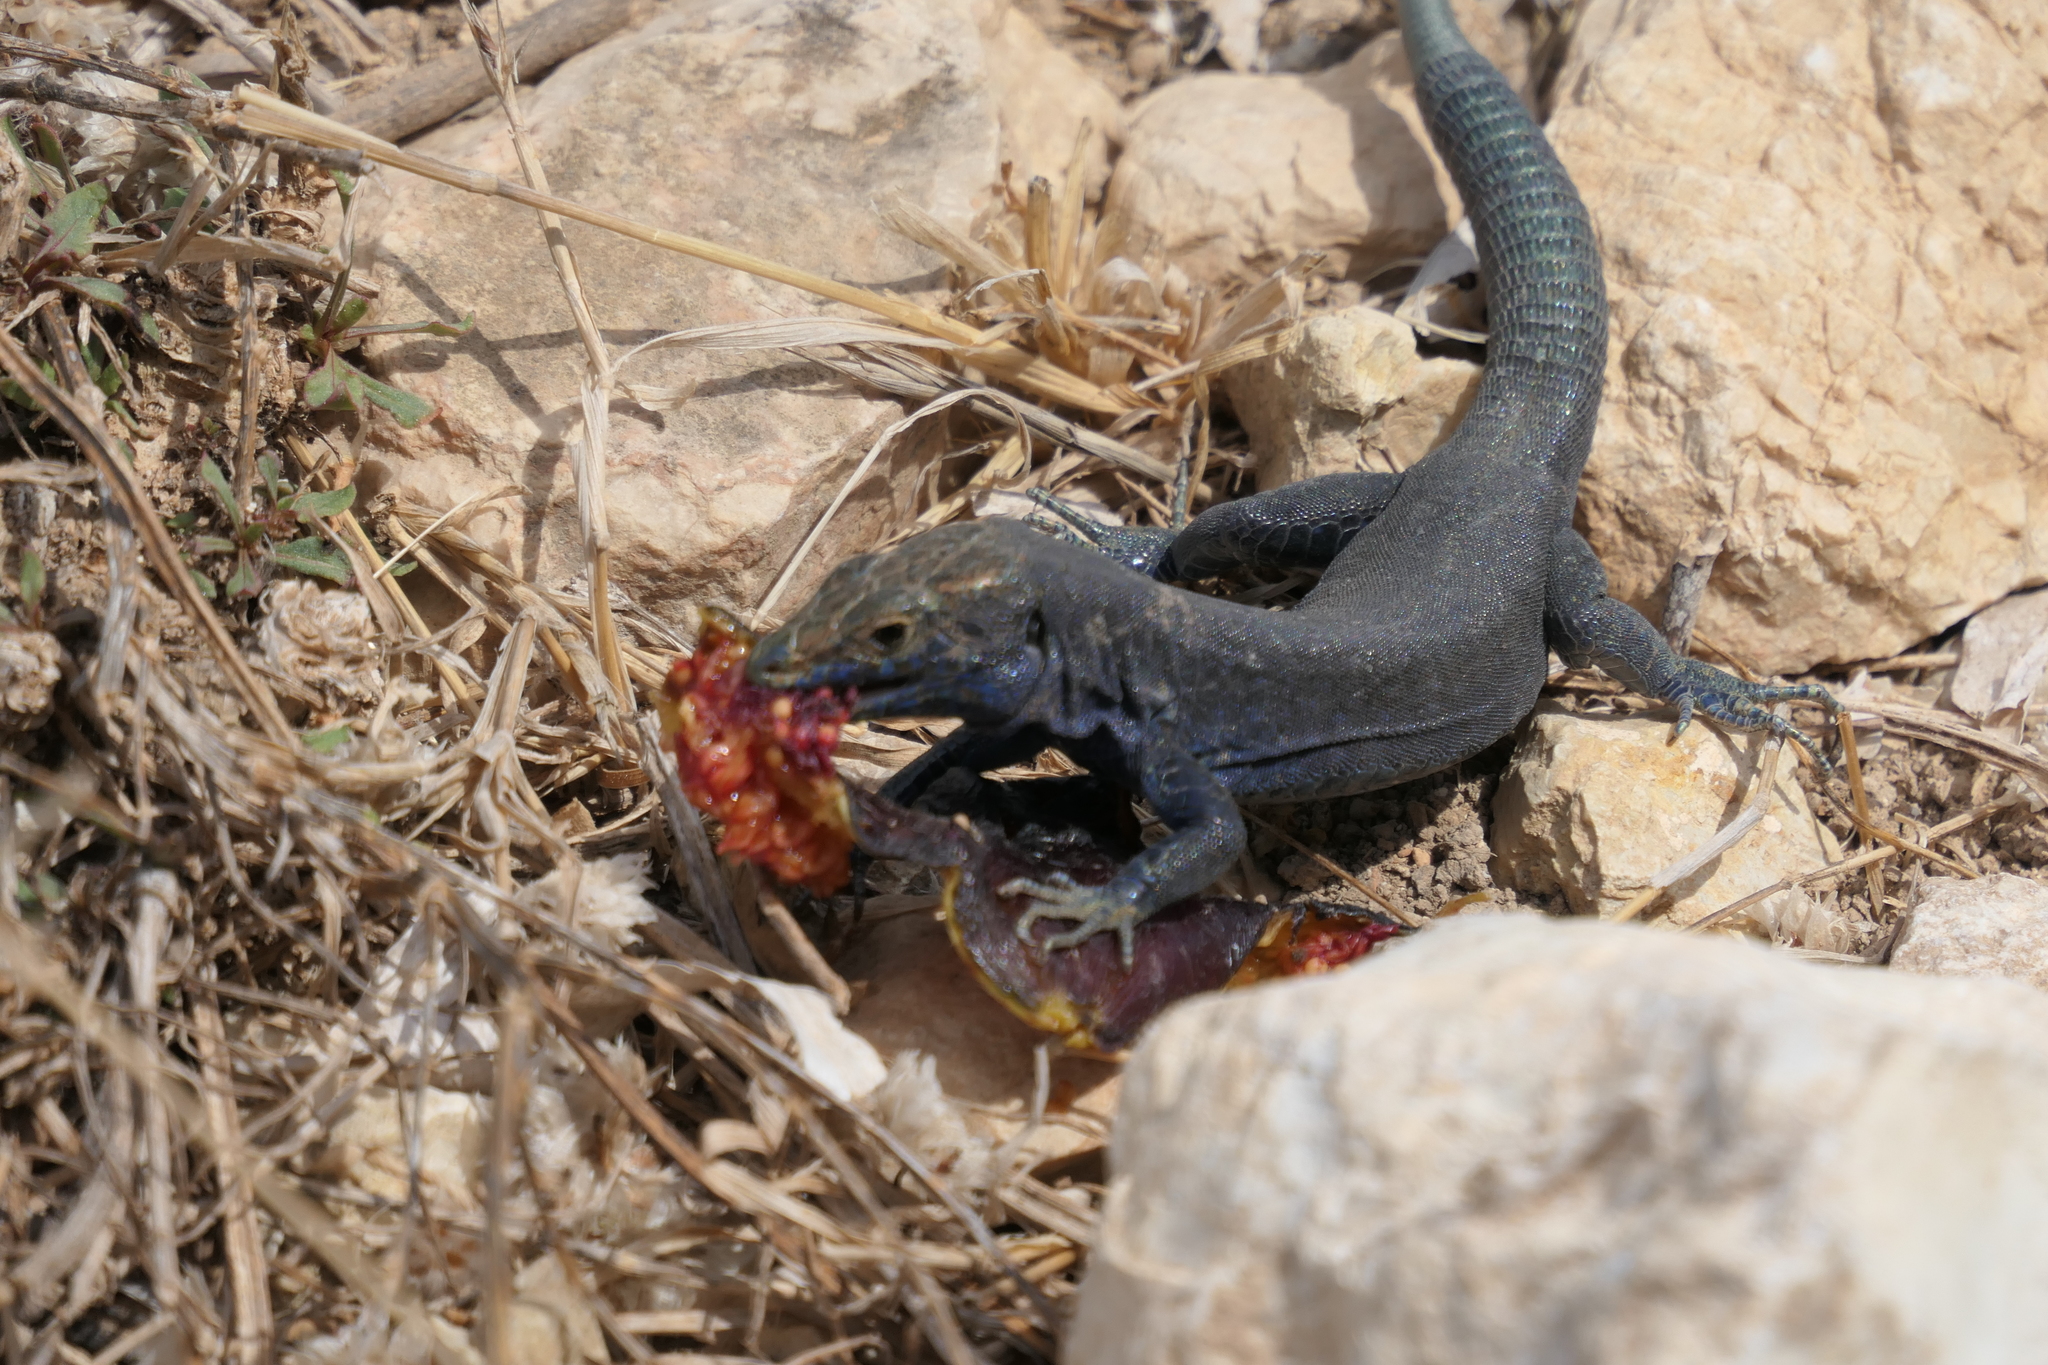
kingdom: Animalia
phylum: Chordata
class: Squamata
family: Lacertidae
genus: Podarcis
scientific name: Podarcis lilfordi
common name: Belearic lizard
